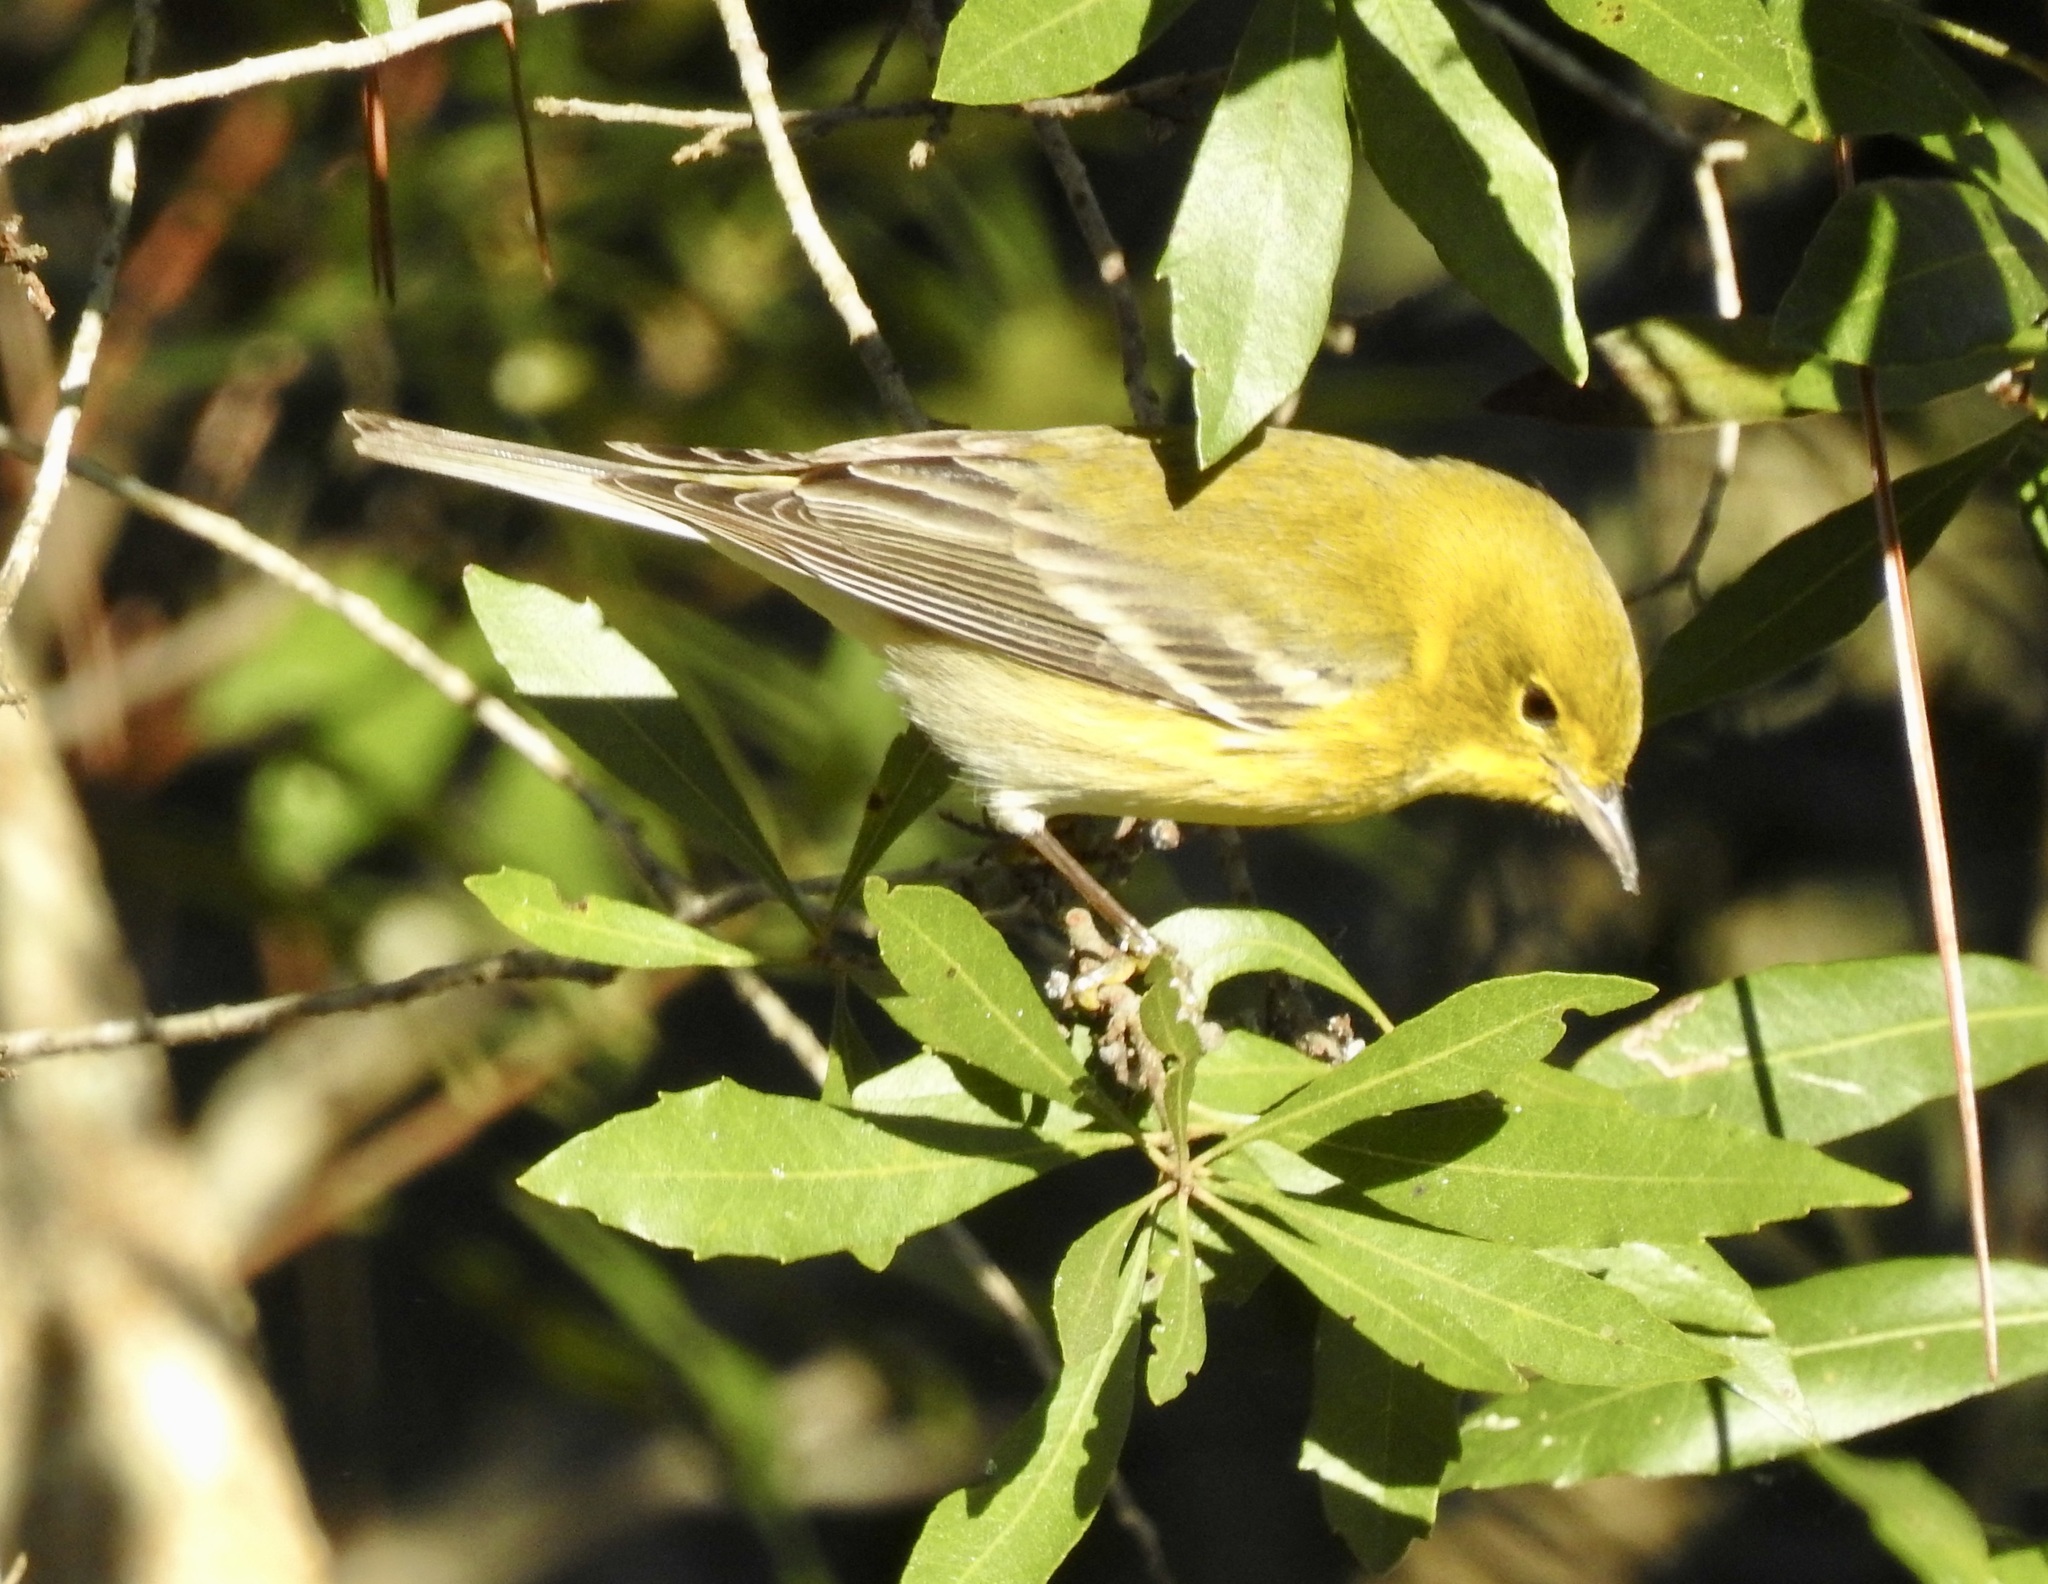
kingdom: Animalia
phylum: Chordata
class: Aves
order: Passeriformes
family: Parulidae
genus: Setophaga
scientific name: Setophaga pinus
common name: Pine warbler
